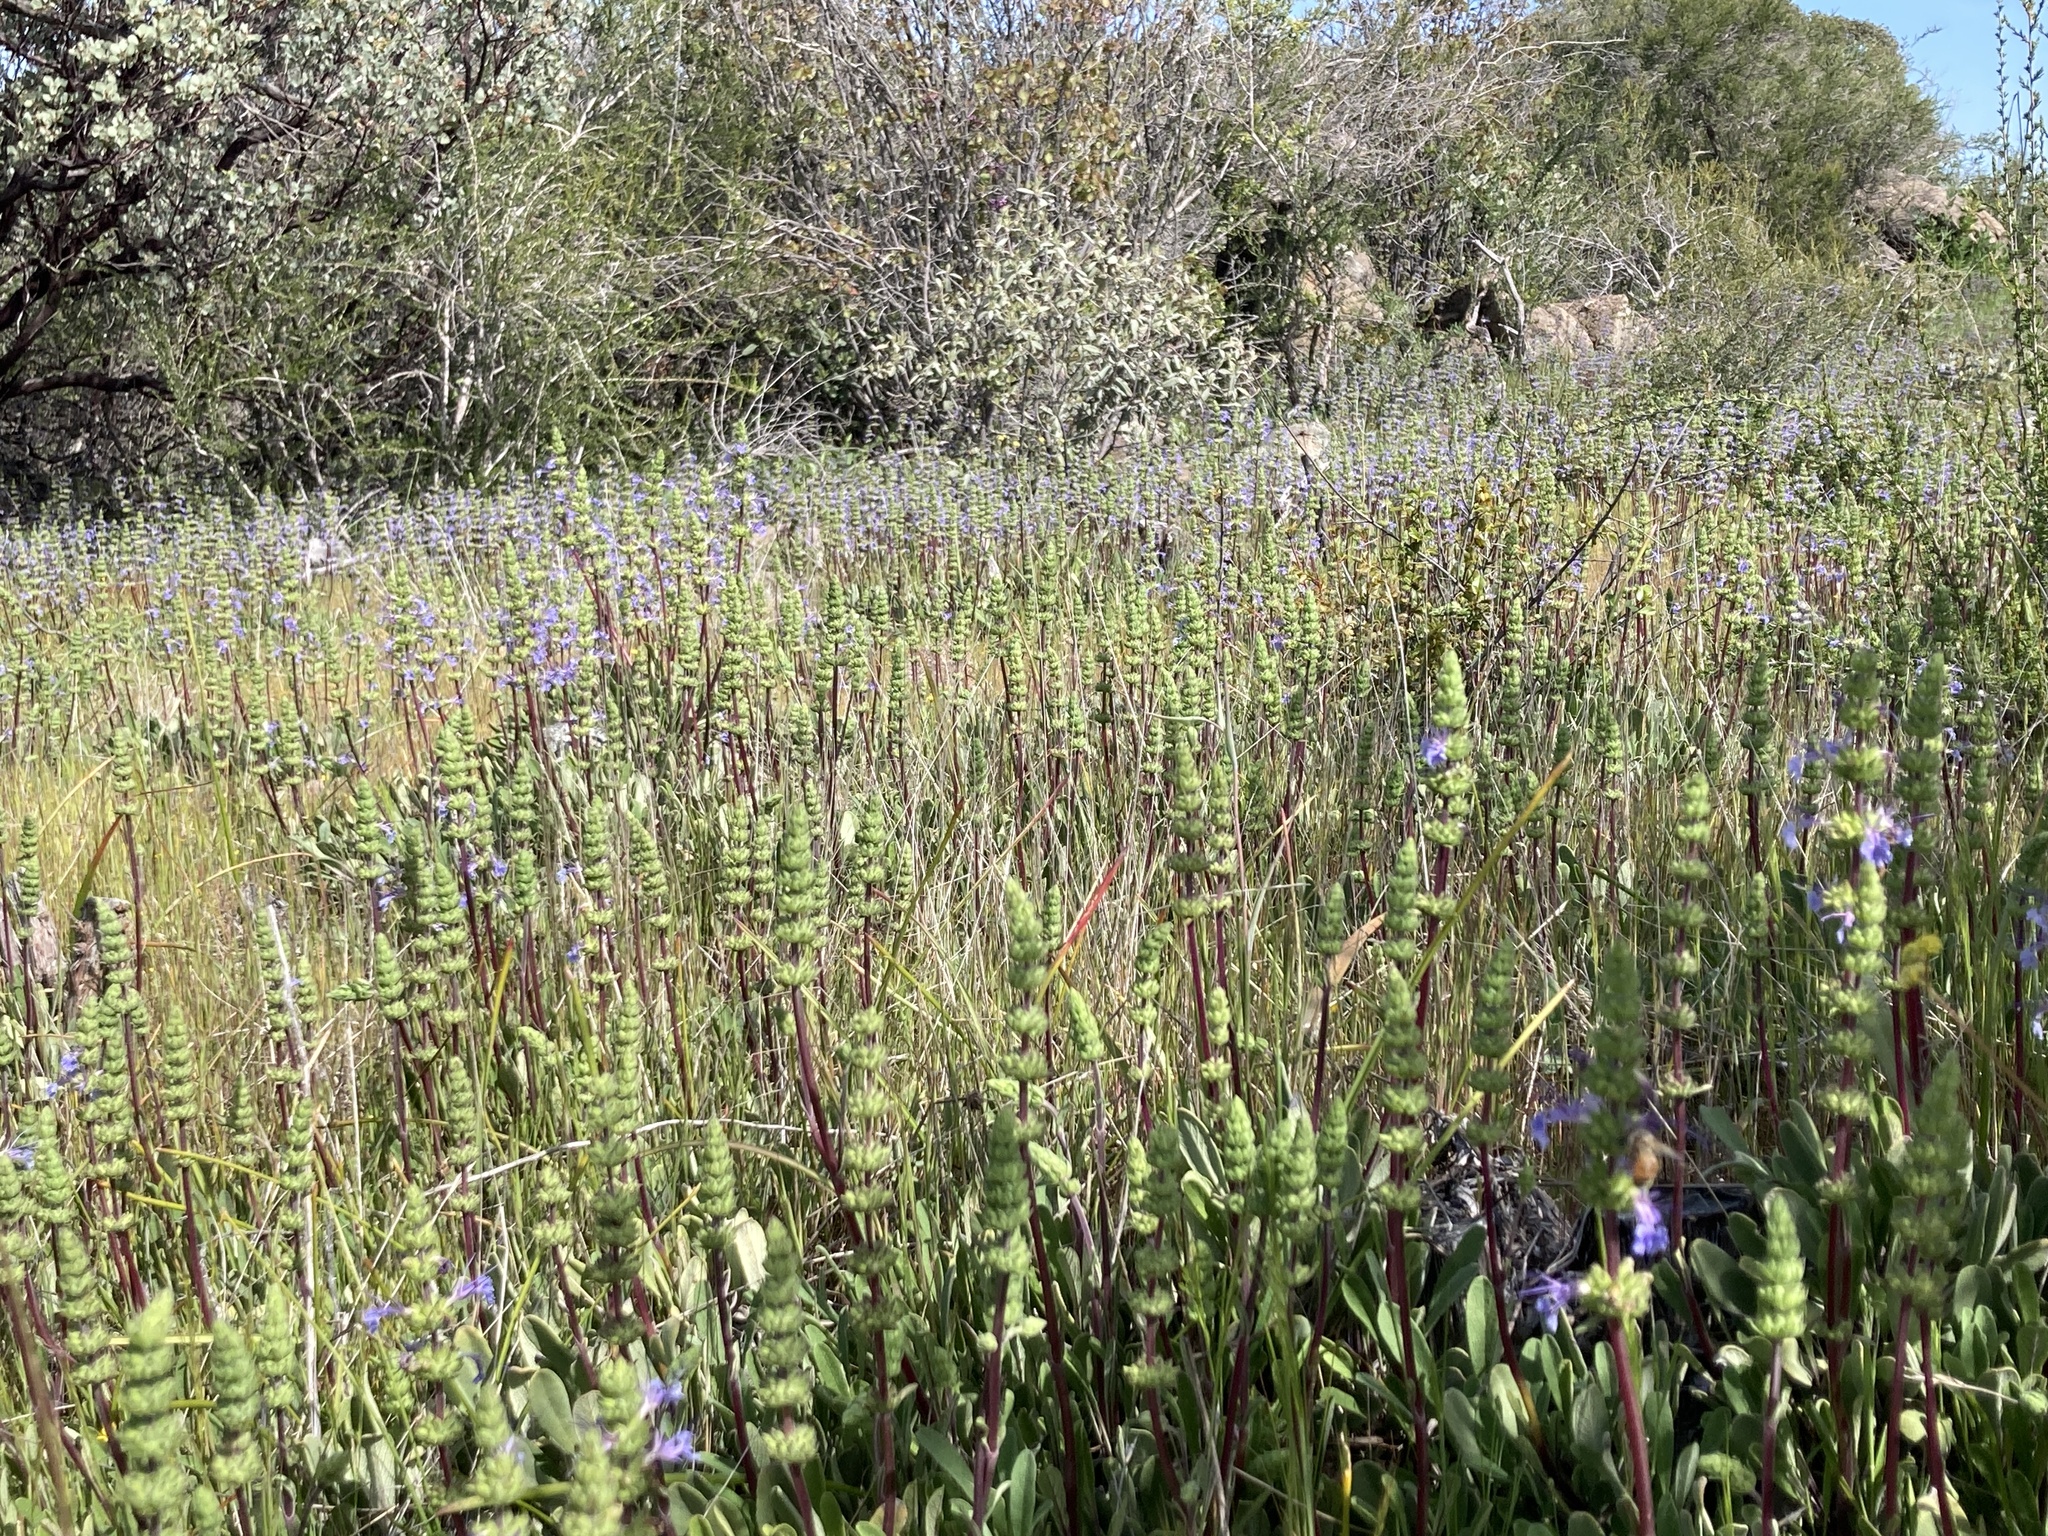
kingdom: Plantae
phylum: Tracheophyta
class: Magnoliopsida
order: Lamiales
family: Lamiaceae
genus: Salvia
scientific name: Salvia sonomensis
